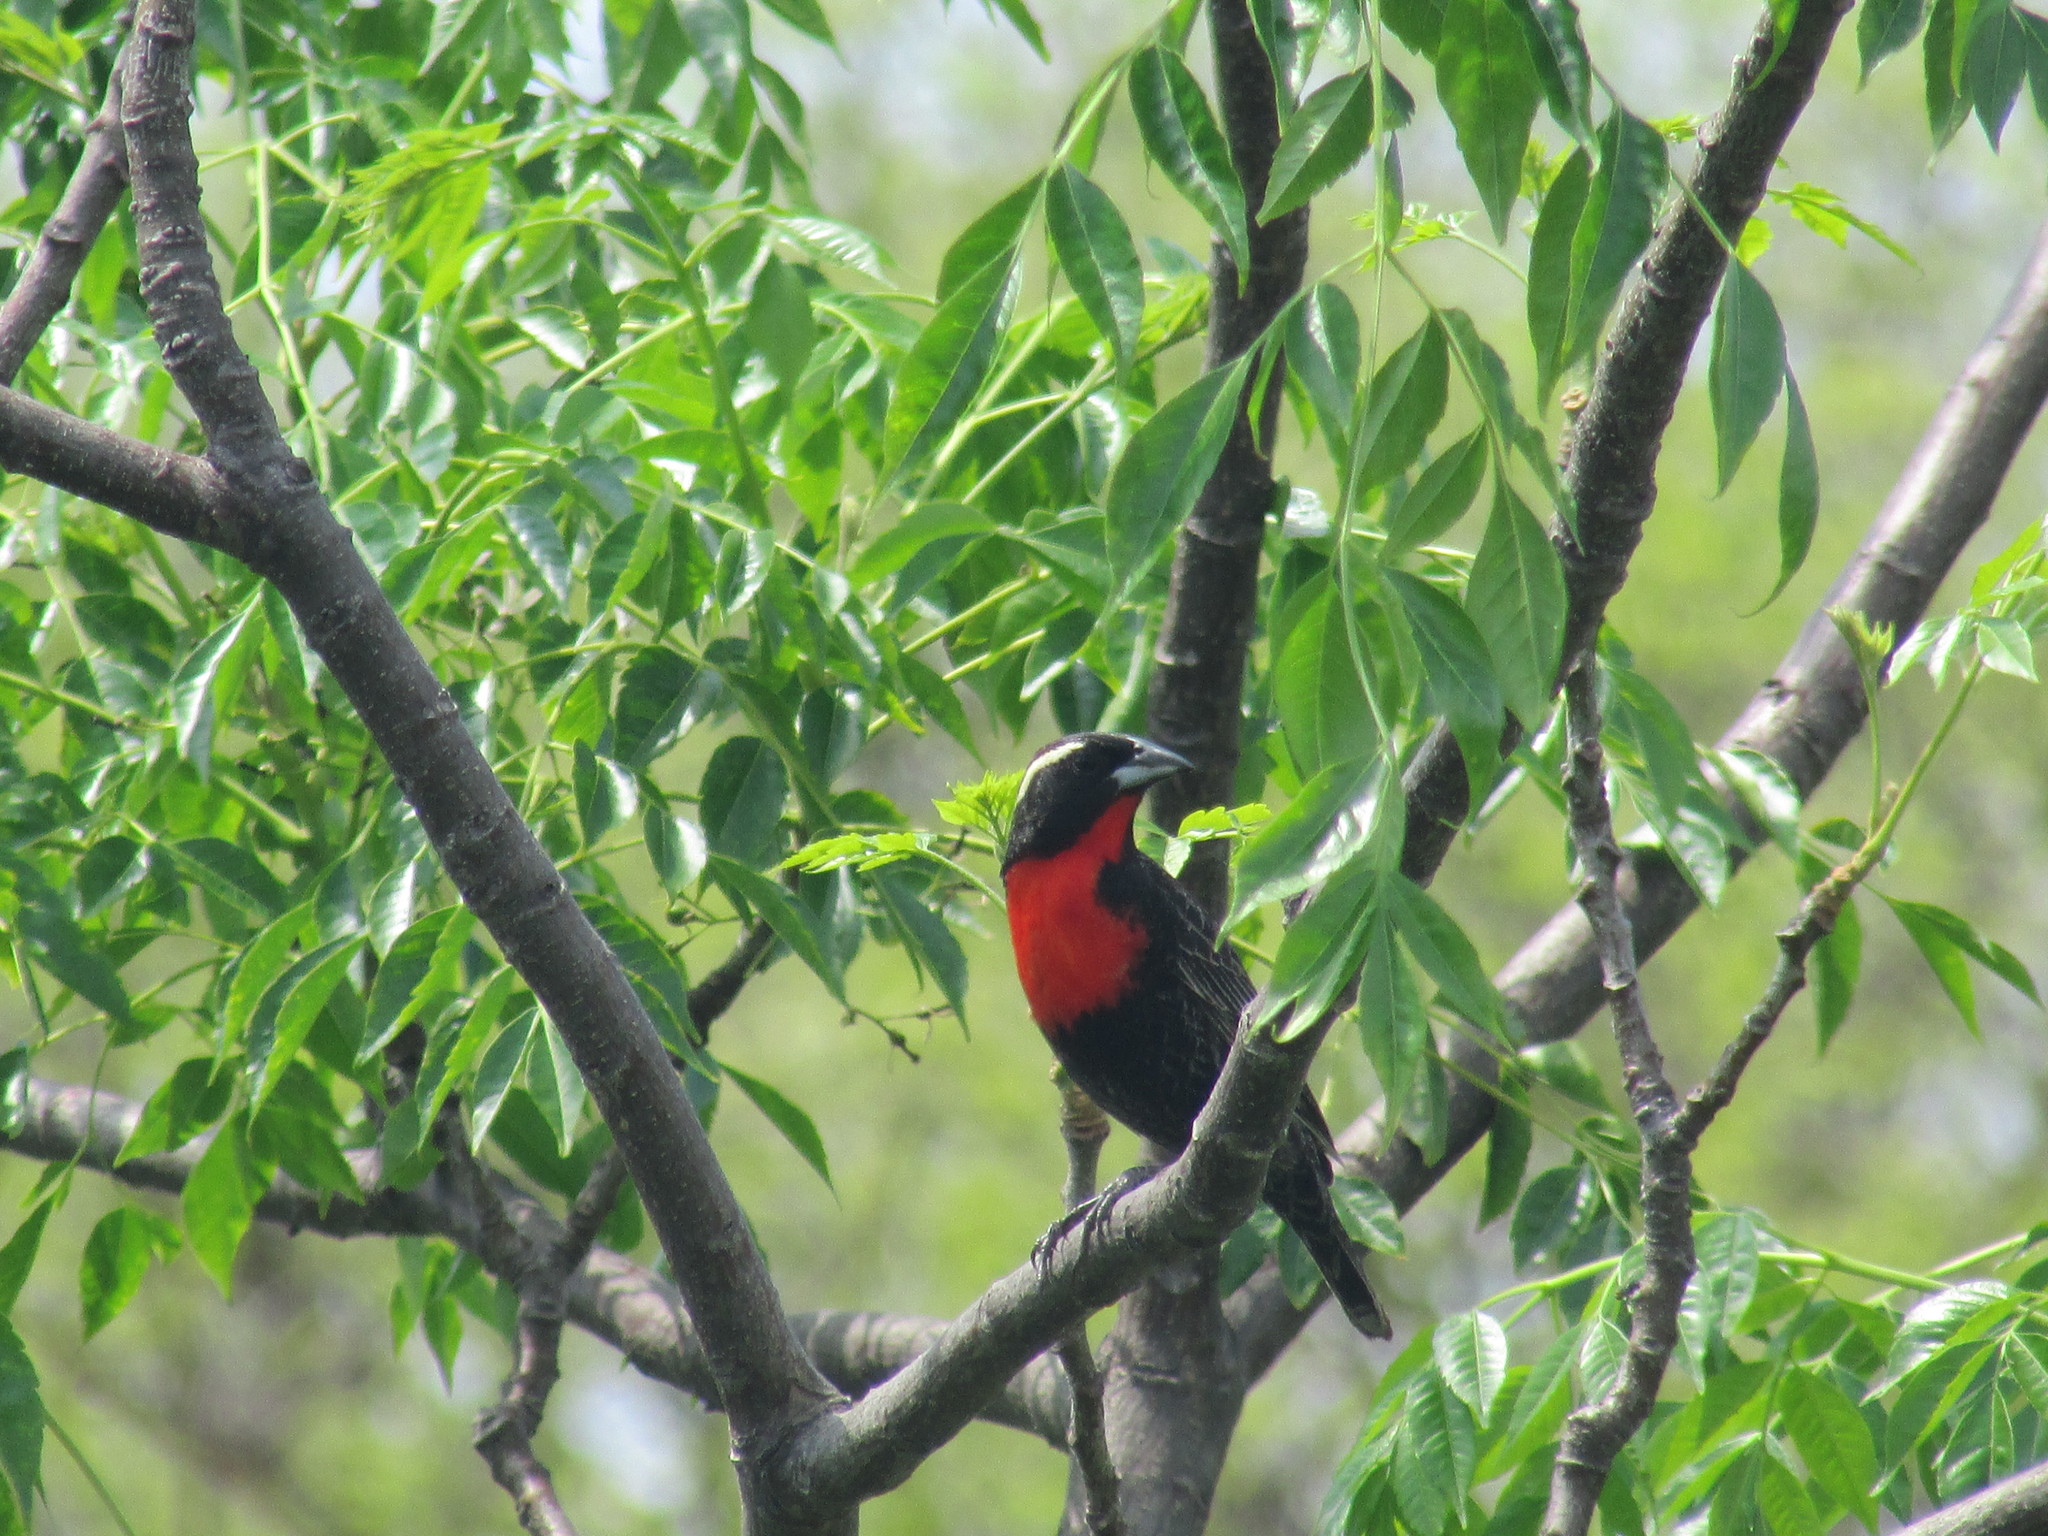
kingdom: Animalia
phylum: Chordata
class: Aves
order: Passeriformes
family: Icteridae
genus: Sturnella
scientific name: Sturnella superciliaris
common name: White-browed blackbird
